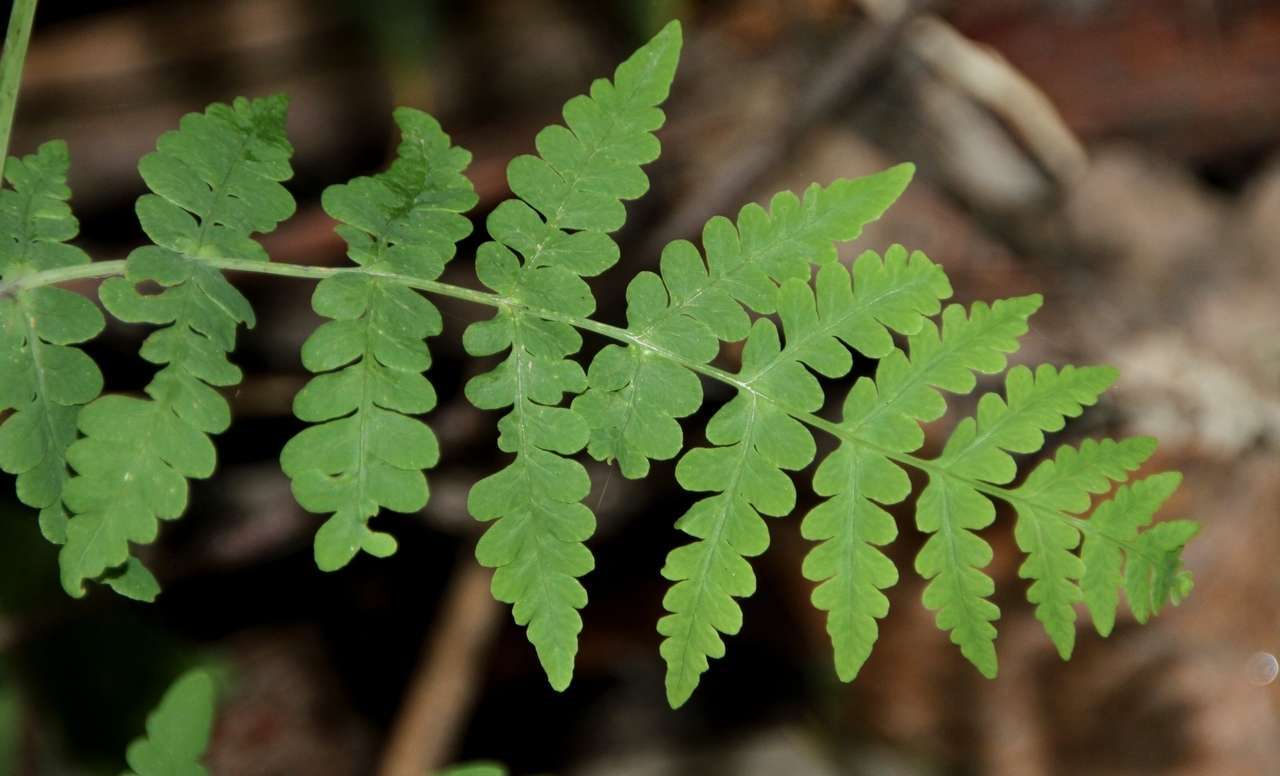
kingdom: Plantae
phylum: Tracheophyta
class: Polypodiopsida
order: Polypodiales
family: Dennstaedtiaceae
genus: Histiopteris
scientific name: Histiopteris incisa
